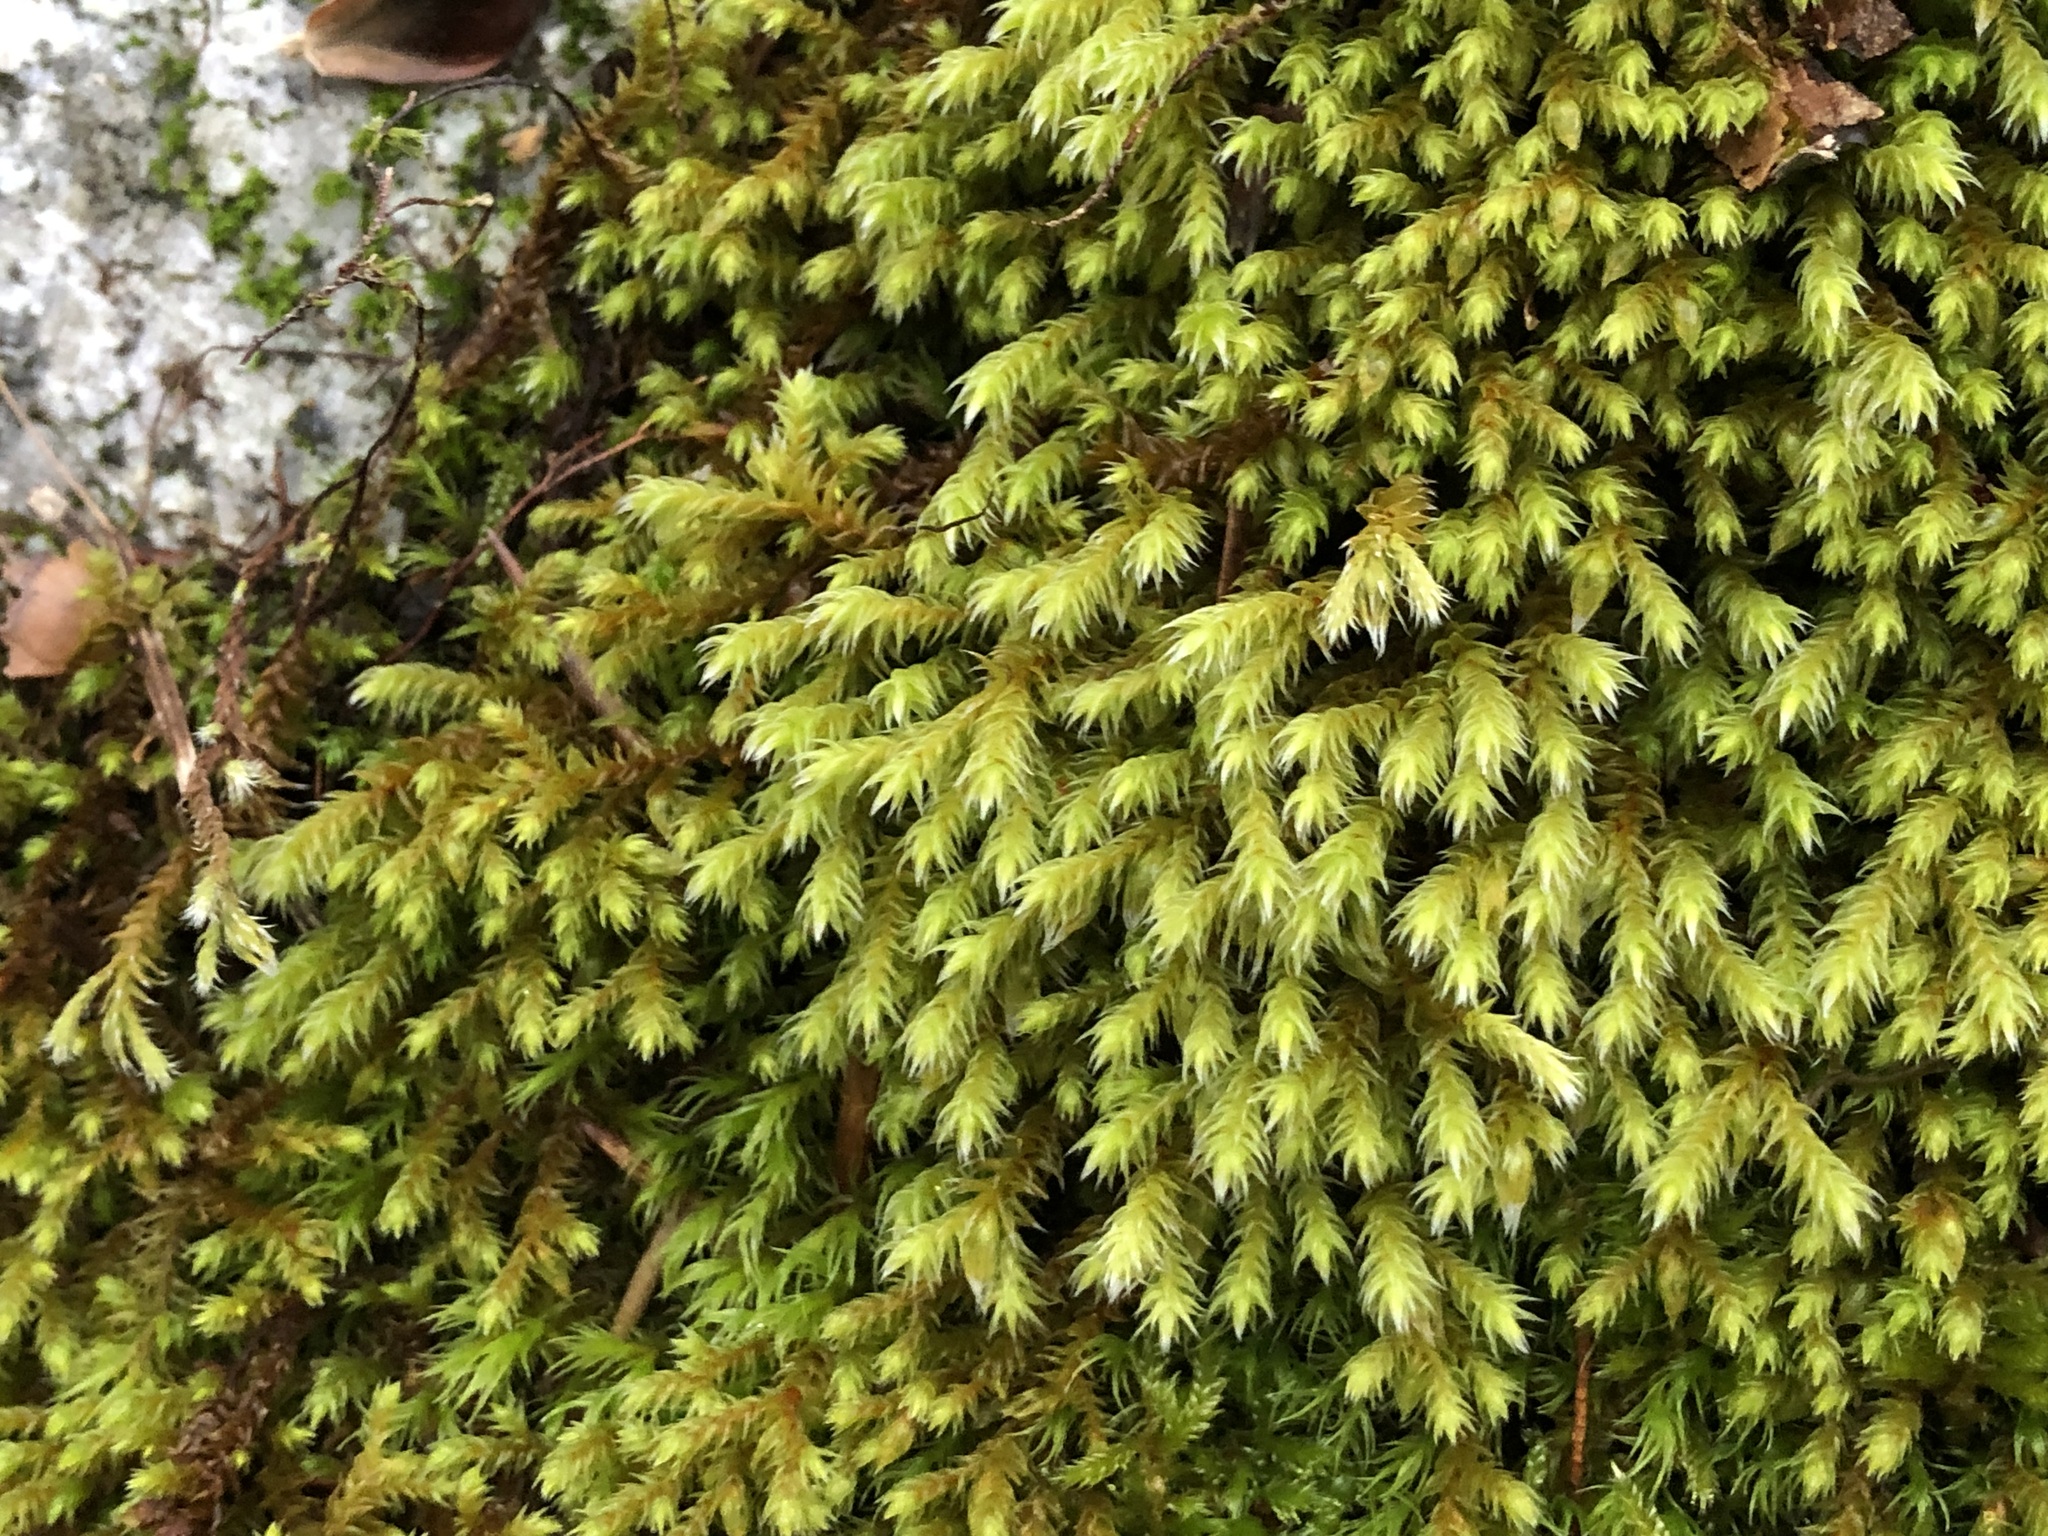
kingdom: Plantae
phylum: Bryophyta
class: Bryopsida
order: Hedwigiales
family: Hedwigiaceae
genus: Hedwigia
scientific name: Hedwigia ciliata
